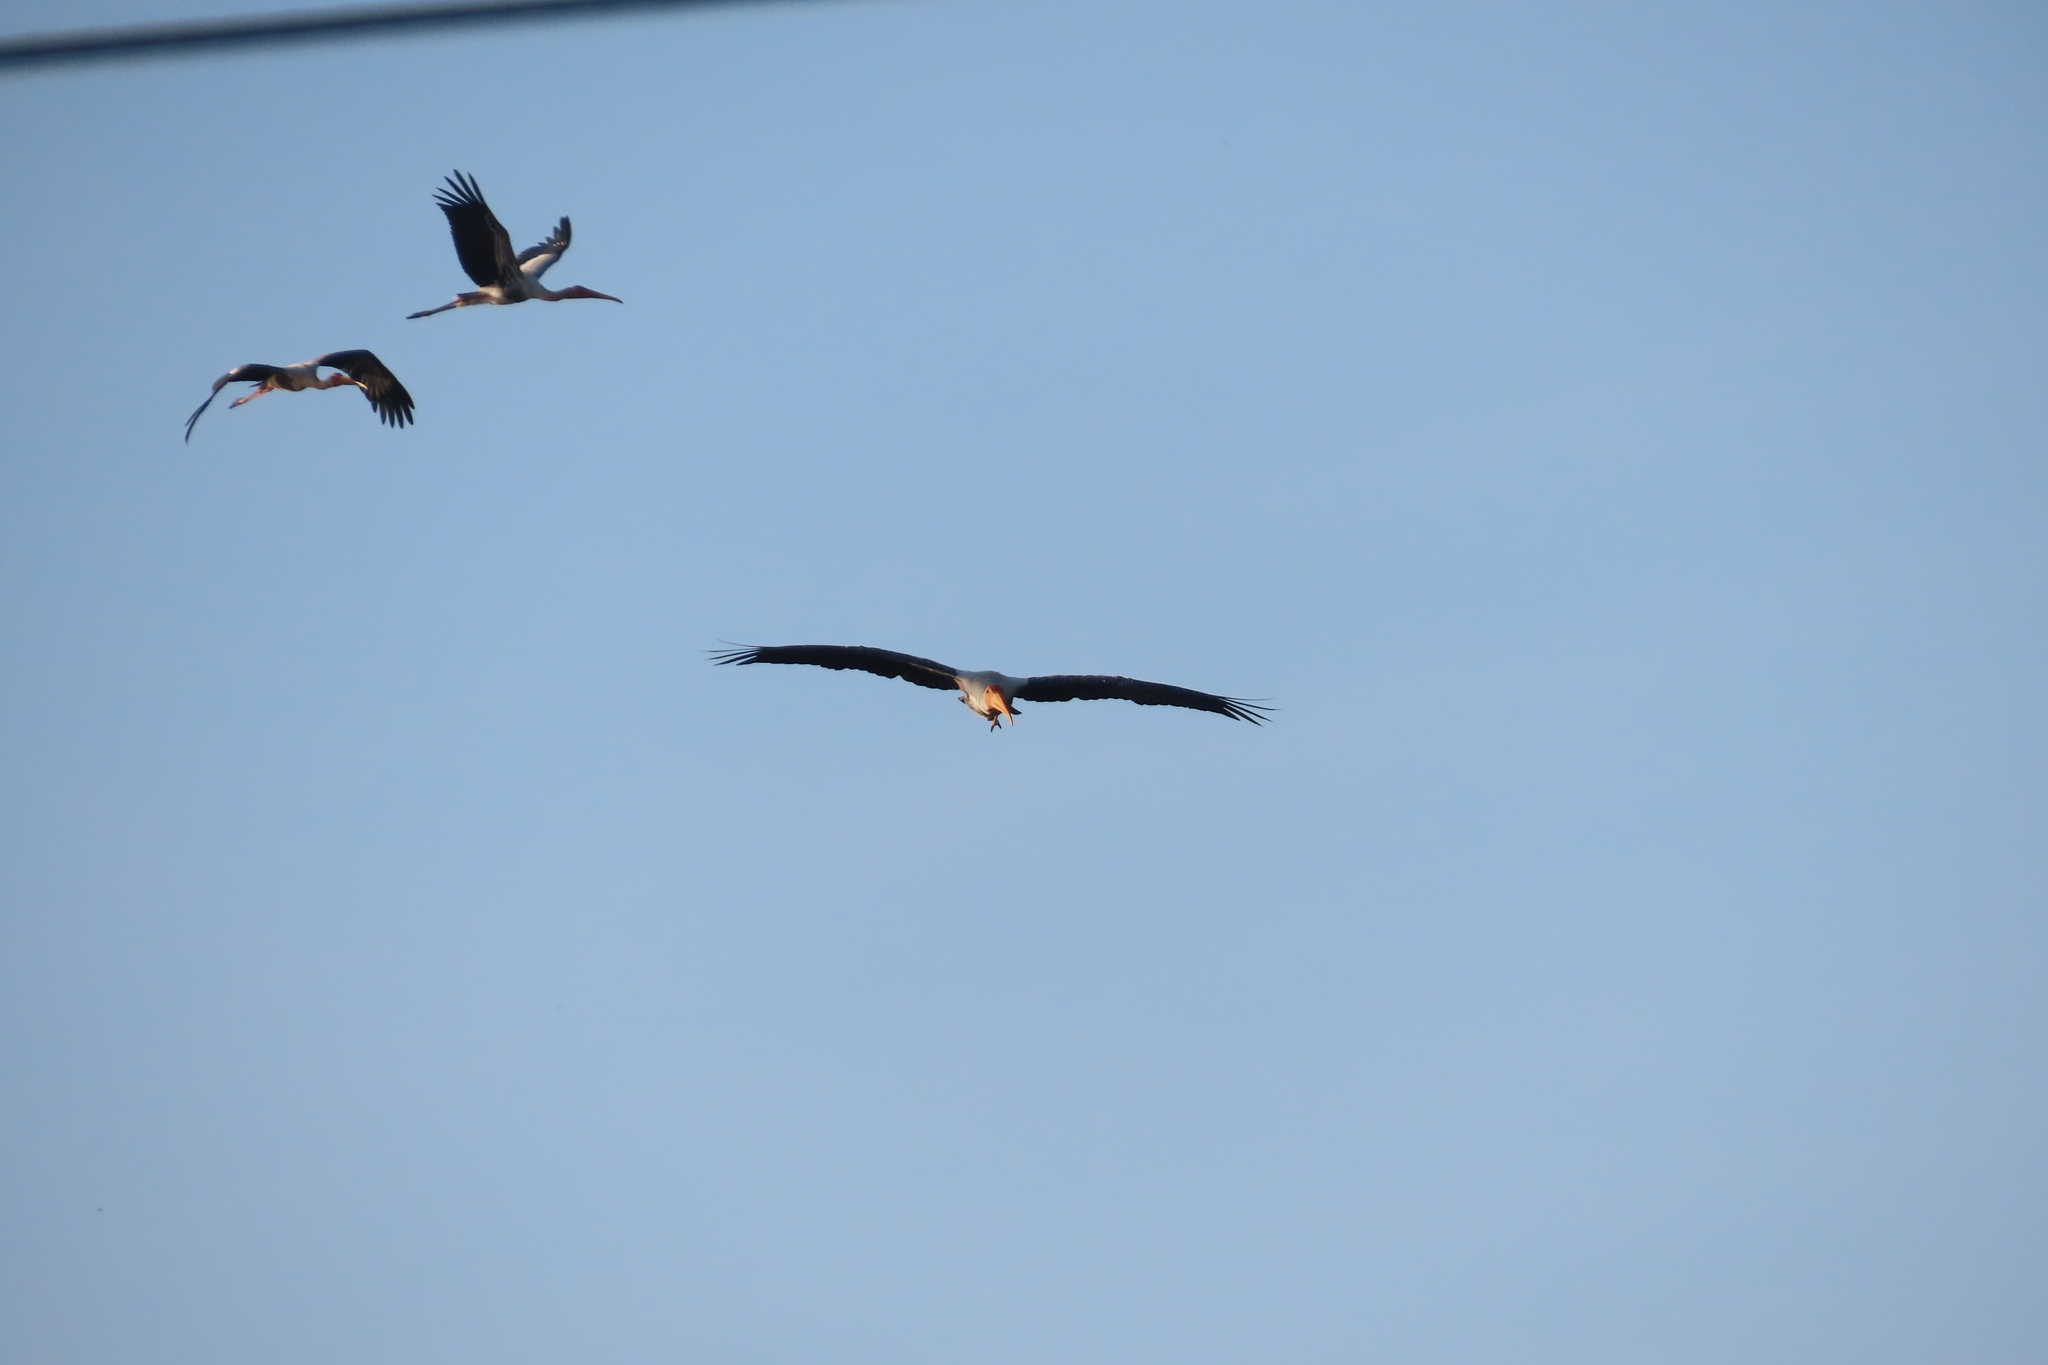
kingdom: Animalia
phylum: Chordata
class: Aves
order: Ciconiiformes
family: Ciconiidae
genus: Mycteria
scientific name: Mycteria leucocephala
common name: Painted stork
